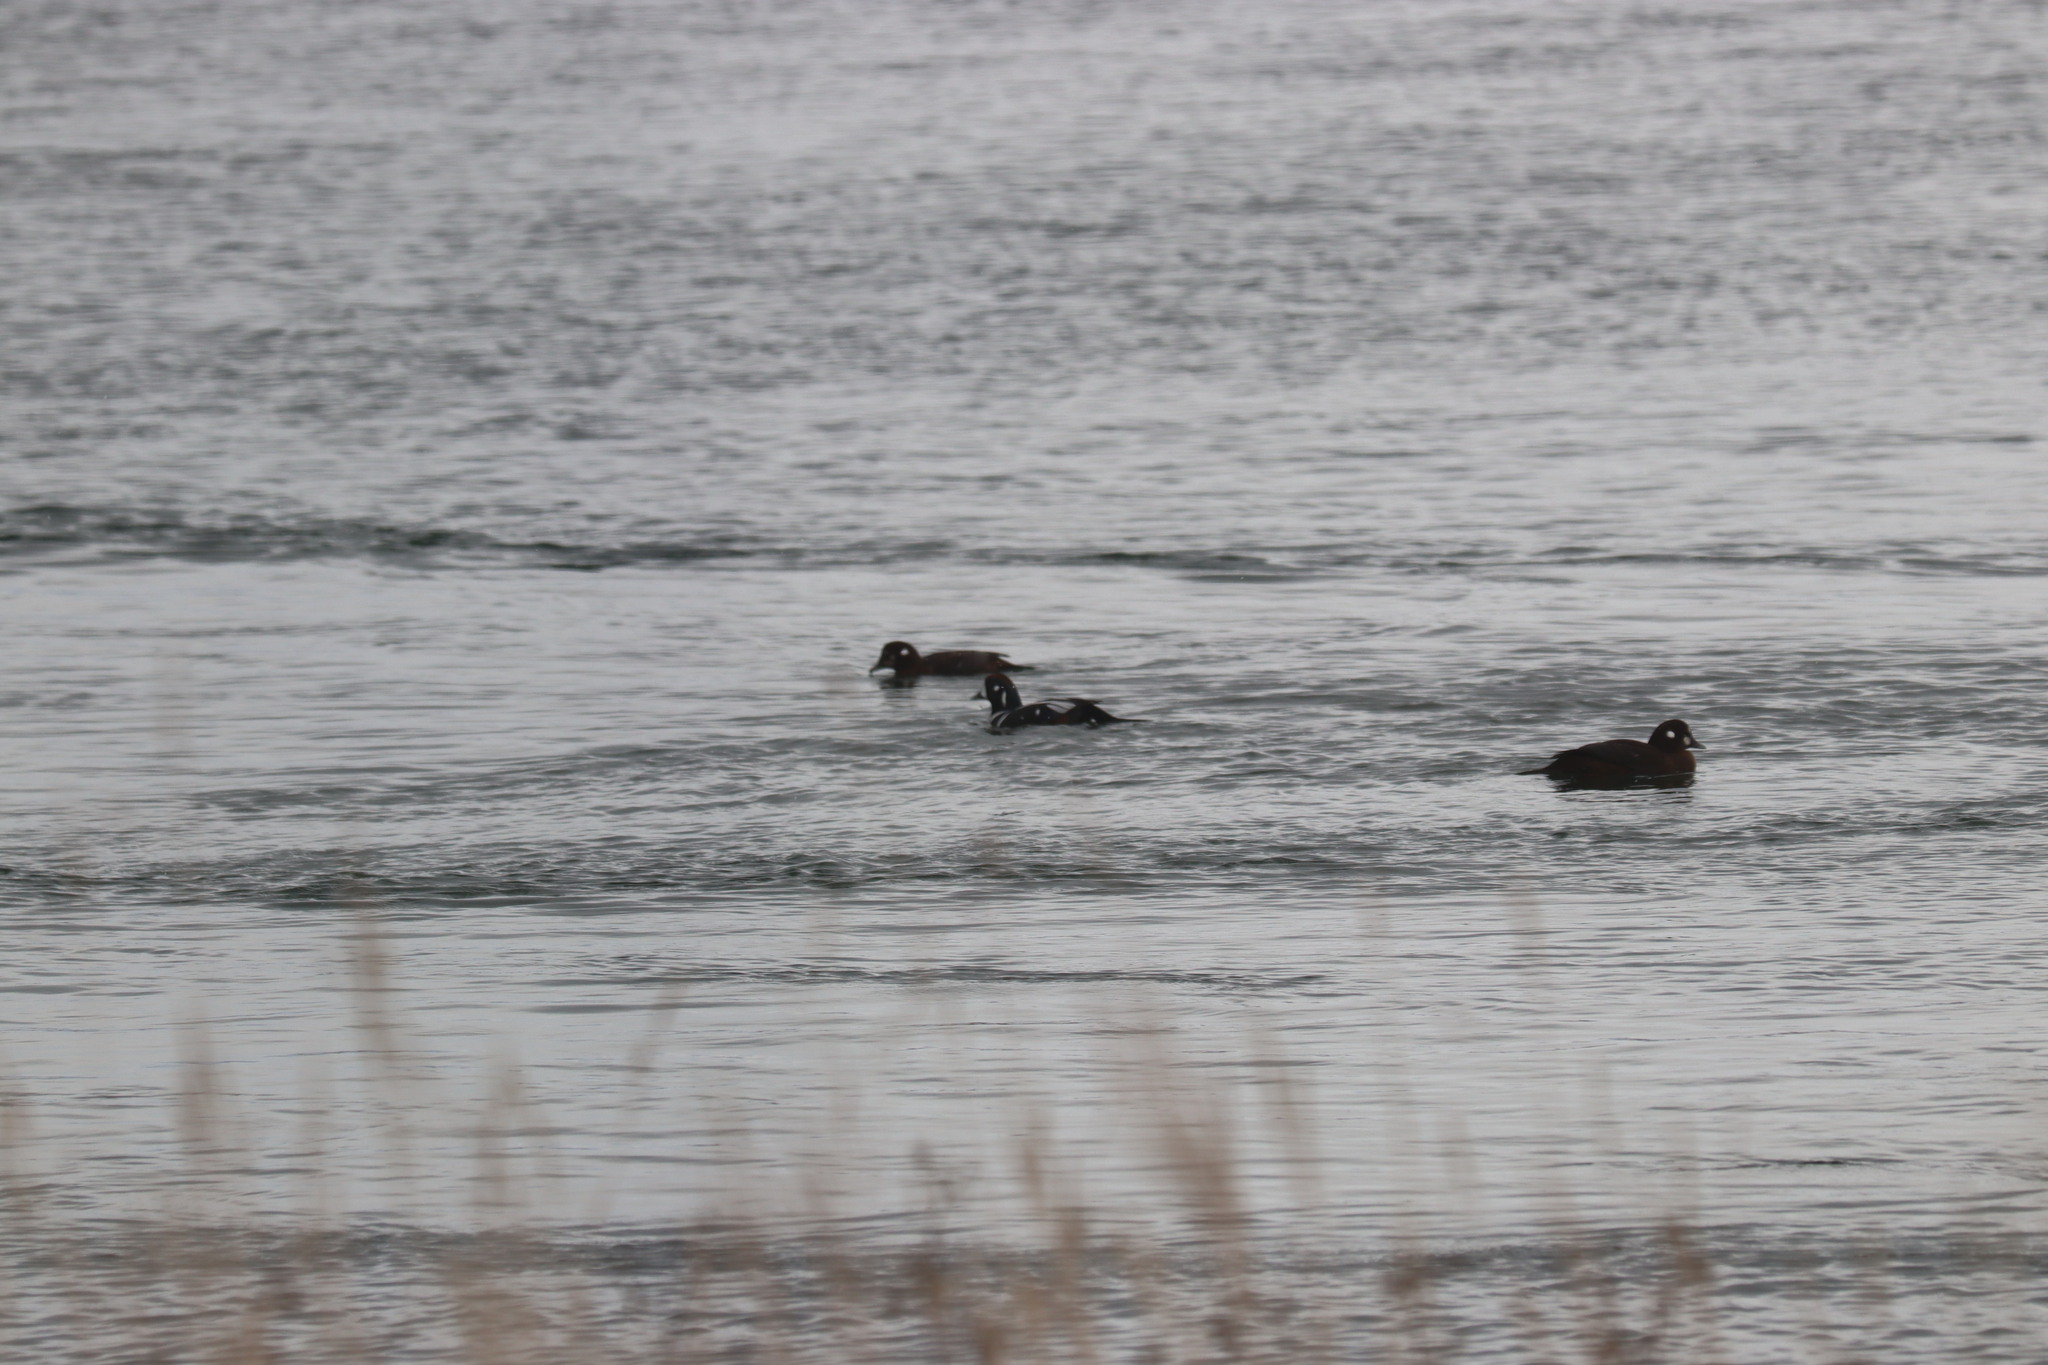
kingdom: Animalia
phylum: Chordata
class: Aves
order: Anseriformes
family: Anatidae
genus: Histrionicus
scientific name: Histrionicus histrionicus
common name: Harlequin duck
